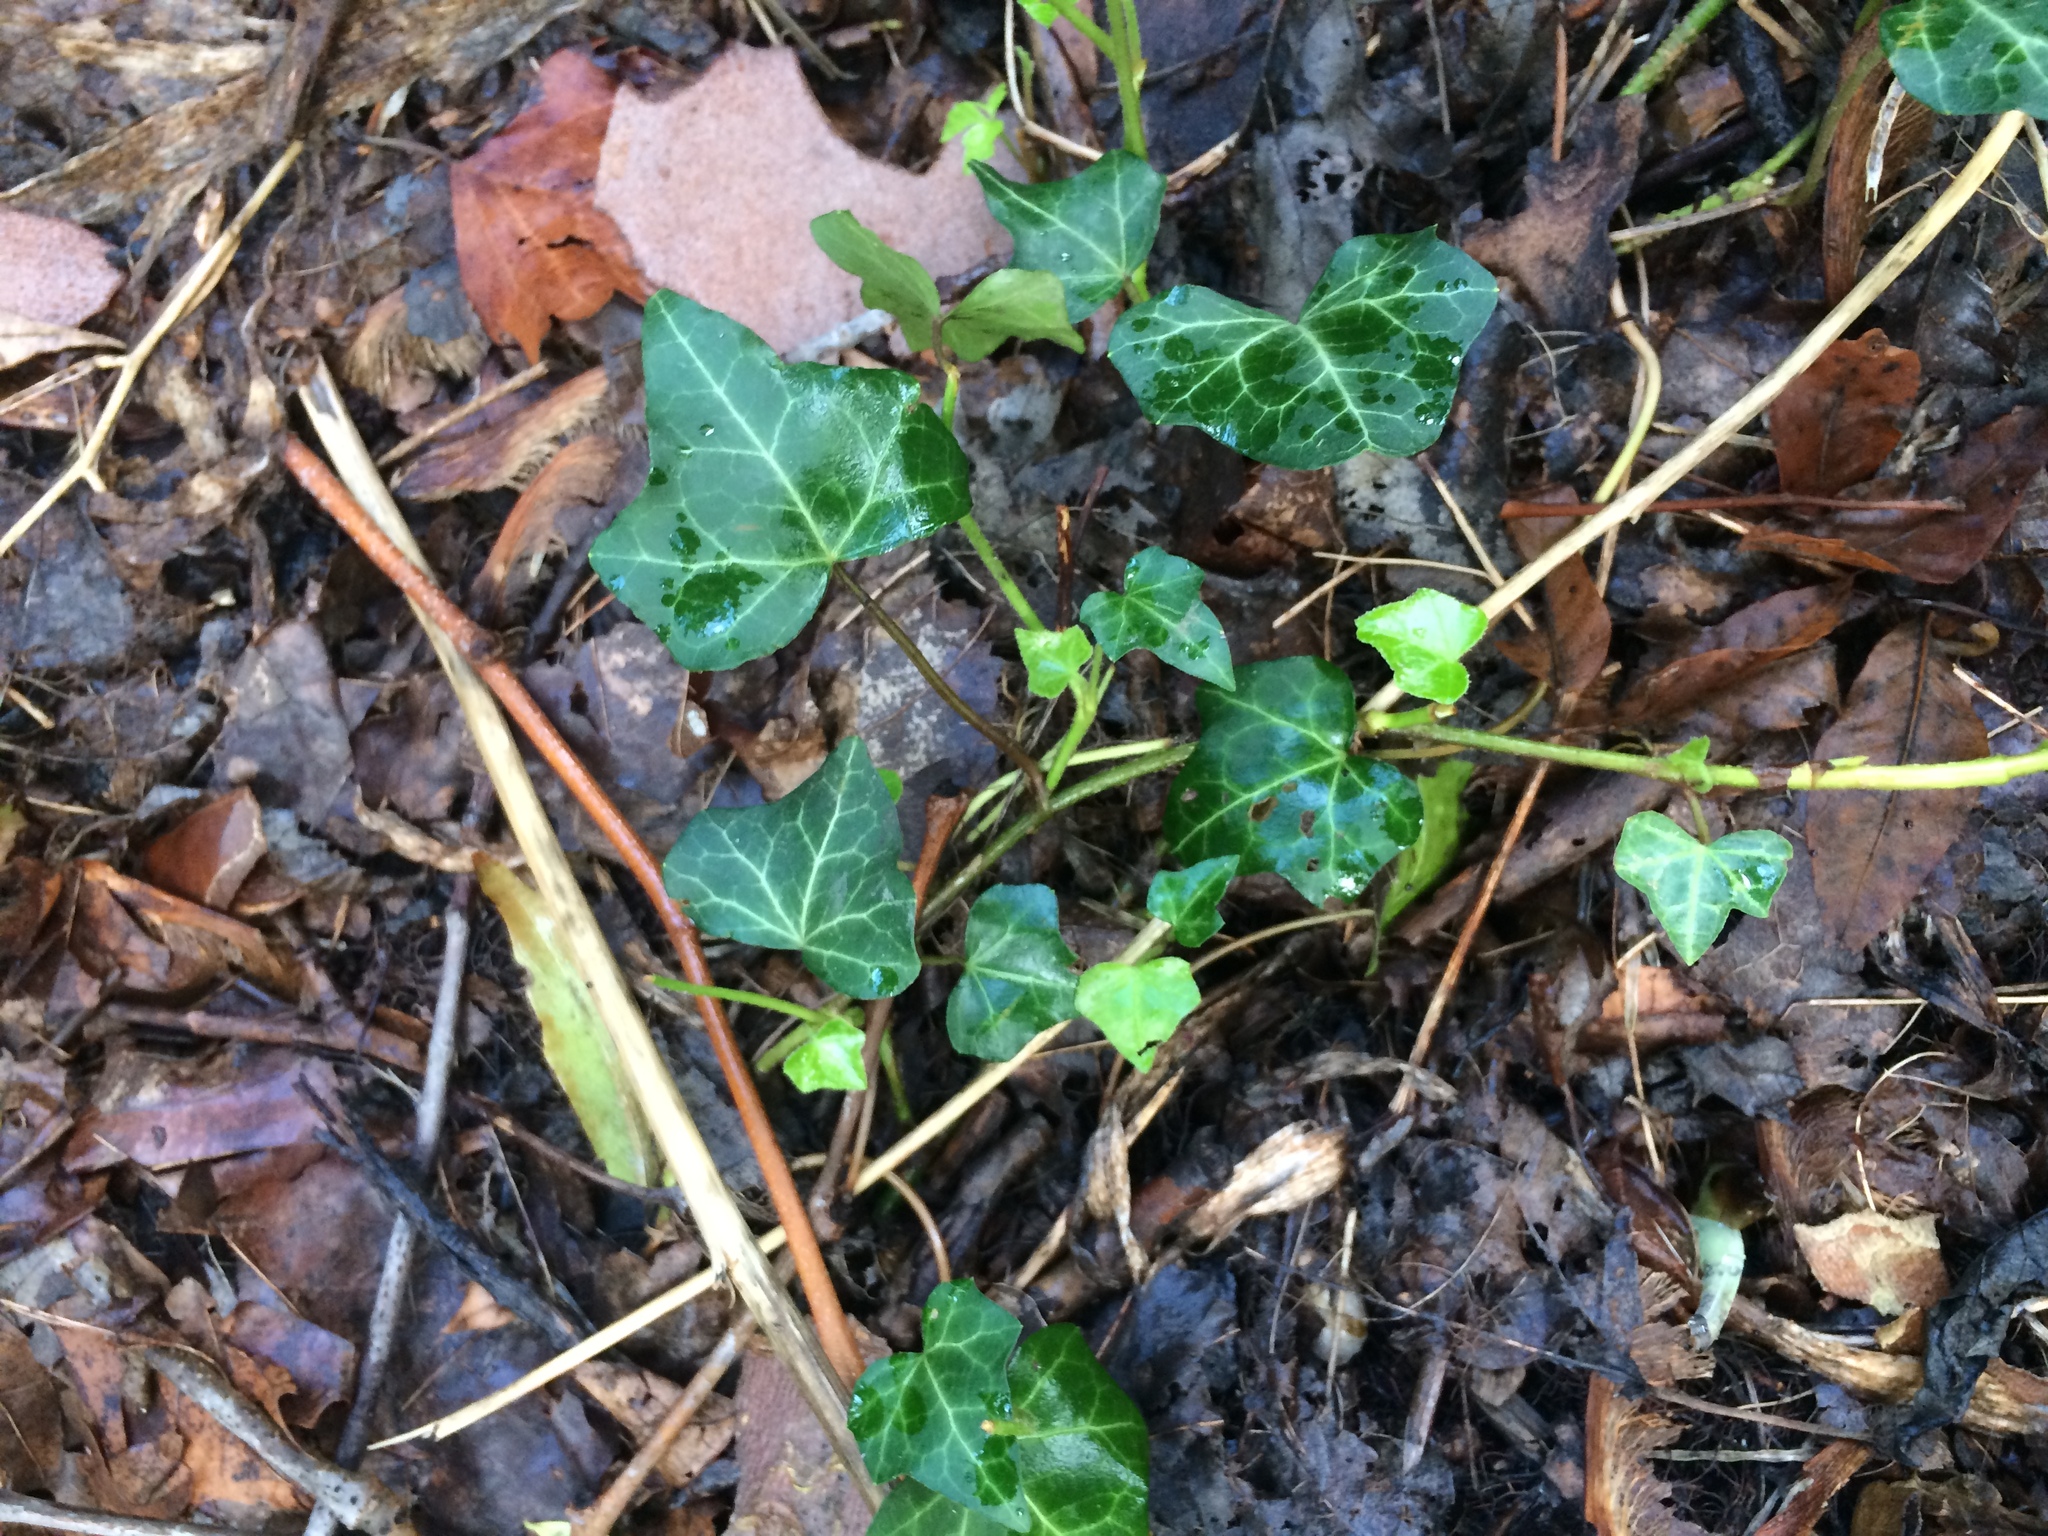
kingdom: Plantae
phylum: Tracheophyta
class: Magnoliopsida
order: Apiales
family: Araliaceae
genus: Hedera
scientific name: Hedera helix
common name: Ivy
